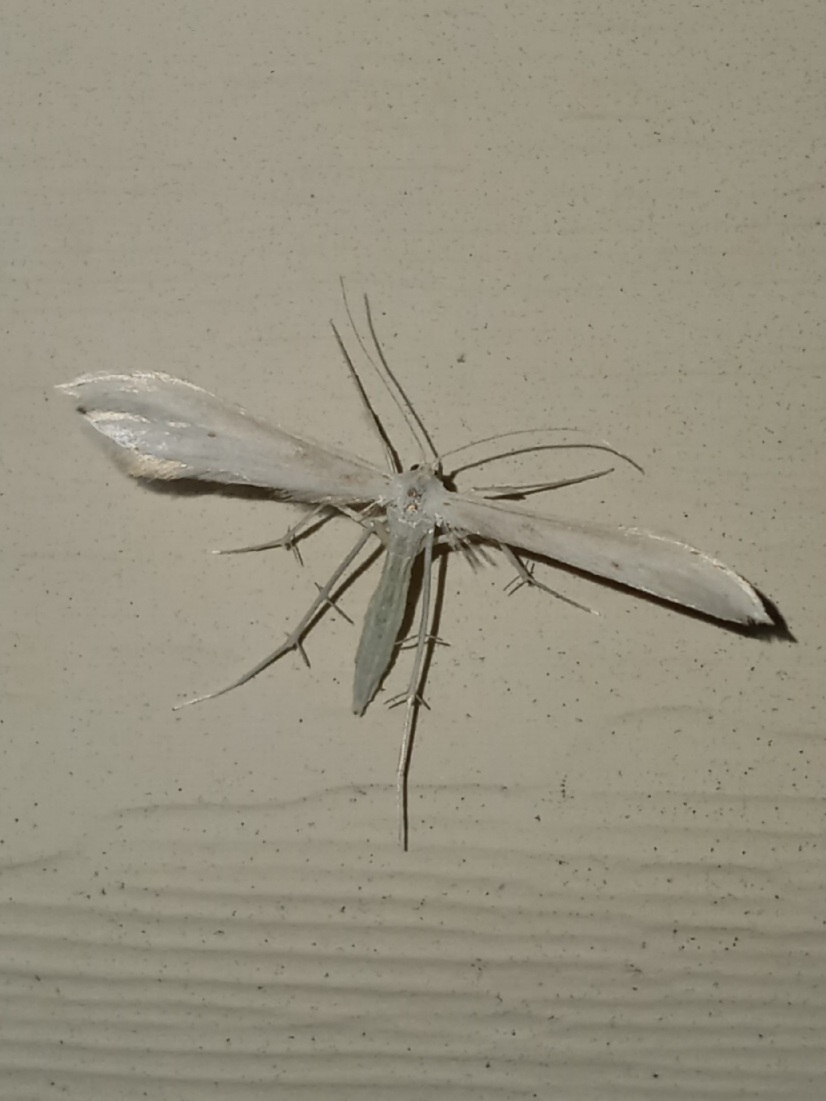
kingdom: Animalia
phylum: Arthropoda
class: Insecta
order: Lepidoptera
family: Pterophoridae
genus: Hellinsia
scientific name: Hellinsia homodactylus
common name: Plain plume moth
